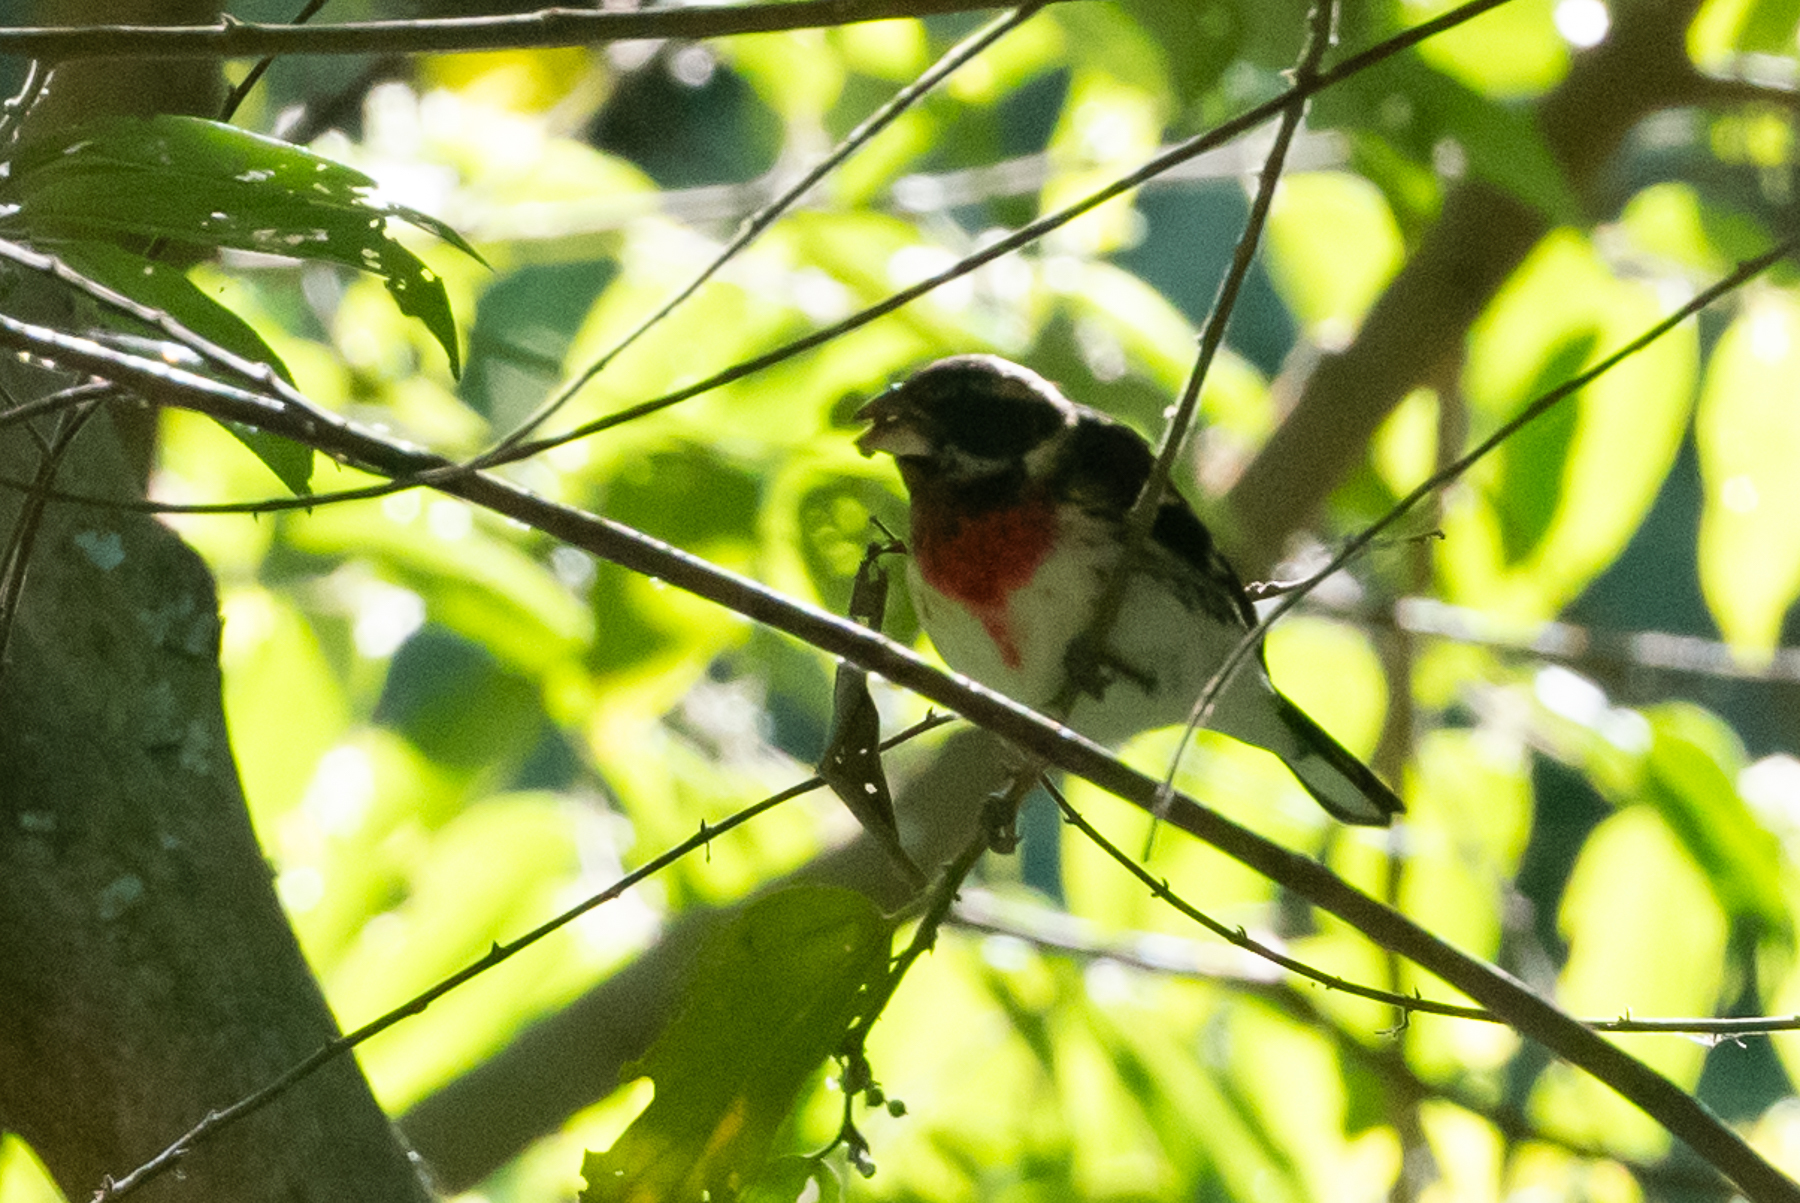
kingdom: Animalia
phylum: Chordata
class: Aves
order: Passeriformes
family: Cardinalidae
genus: Pheucticus
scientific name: Pheucticus ludovicianus
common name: Rose-breasted grosbeak
